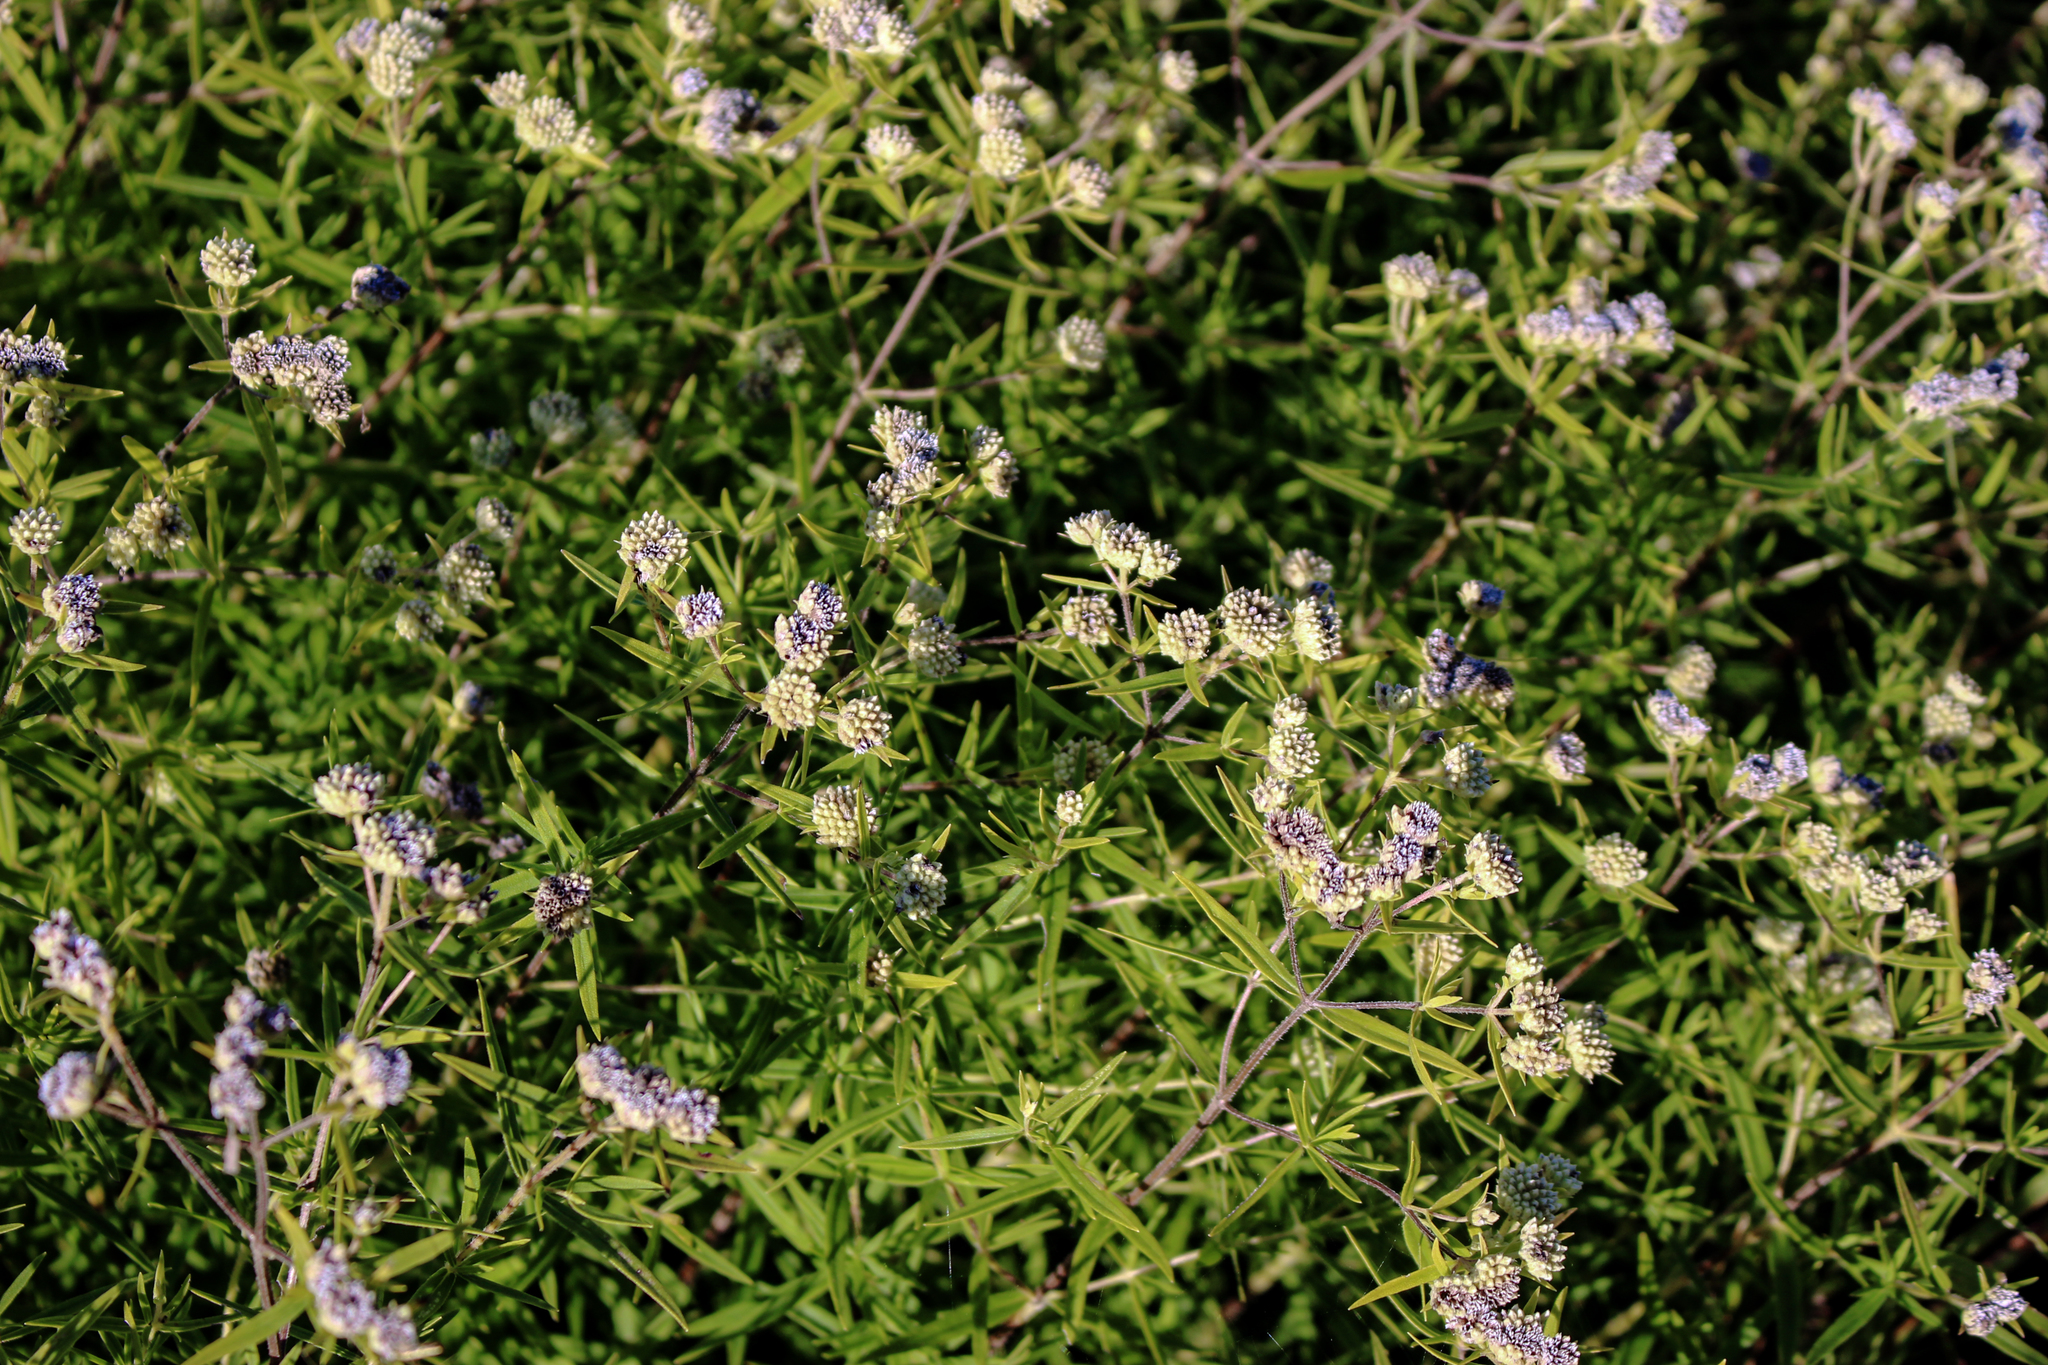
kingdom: Plantae
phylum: Tracheophyta
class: Magnoliopsida
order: Lamiales
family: Lamiaceae
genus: Pycnanthemum
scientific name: Pycnanthemum virginianum
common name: Virginia mountain-mint
